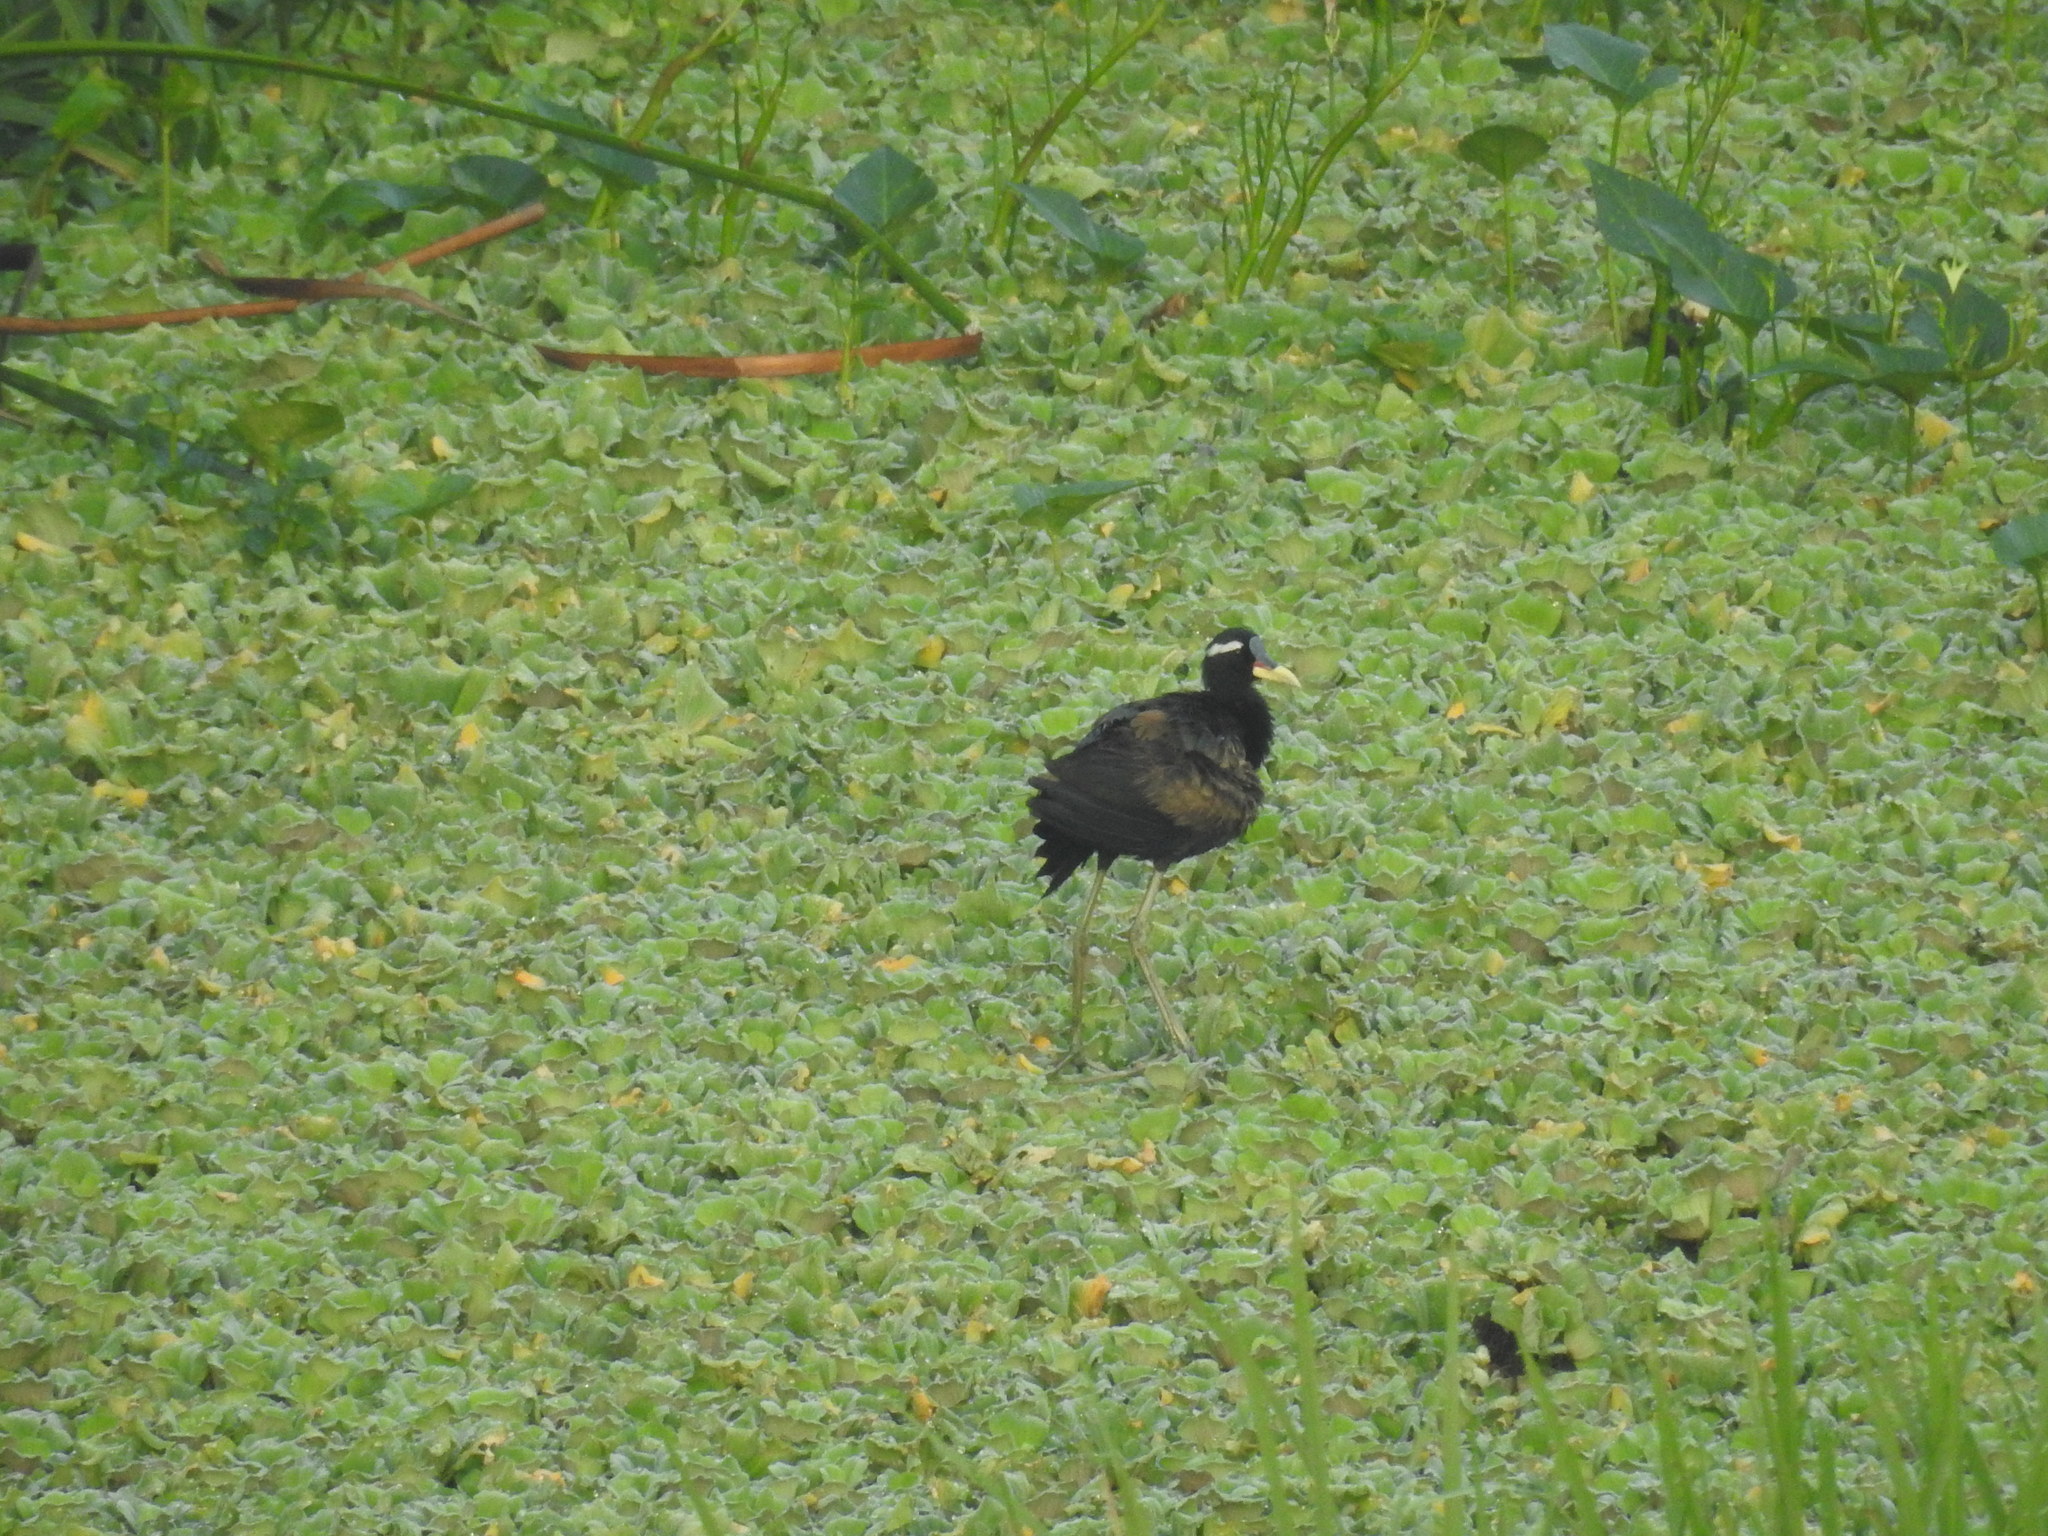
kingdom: Animalia
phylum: Chordata
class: Aves
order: Charadriiformes
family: Jacanidae
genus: Metopidius
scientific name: Metopidius indicus
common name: Bronze-winged jacana
